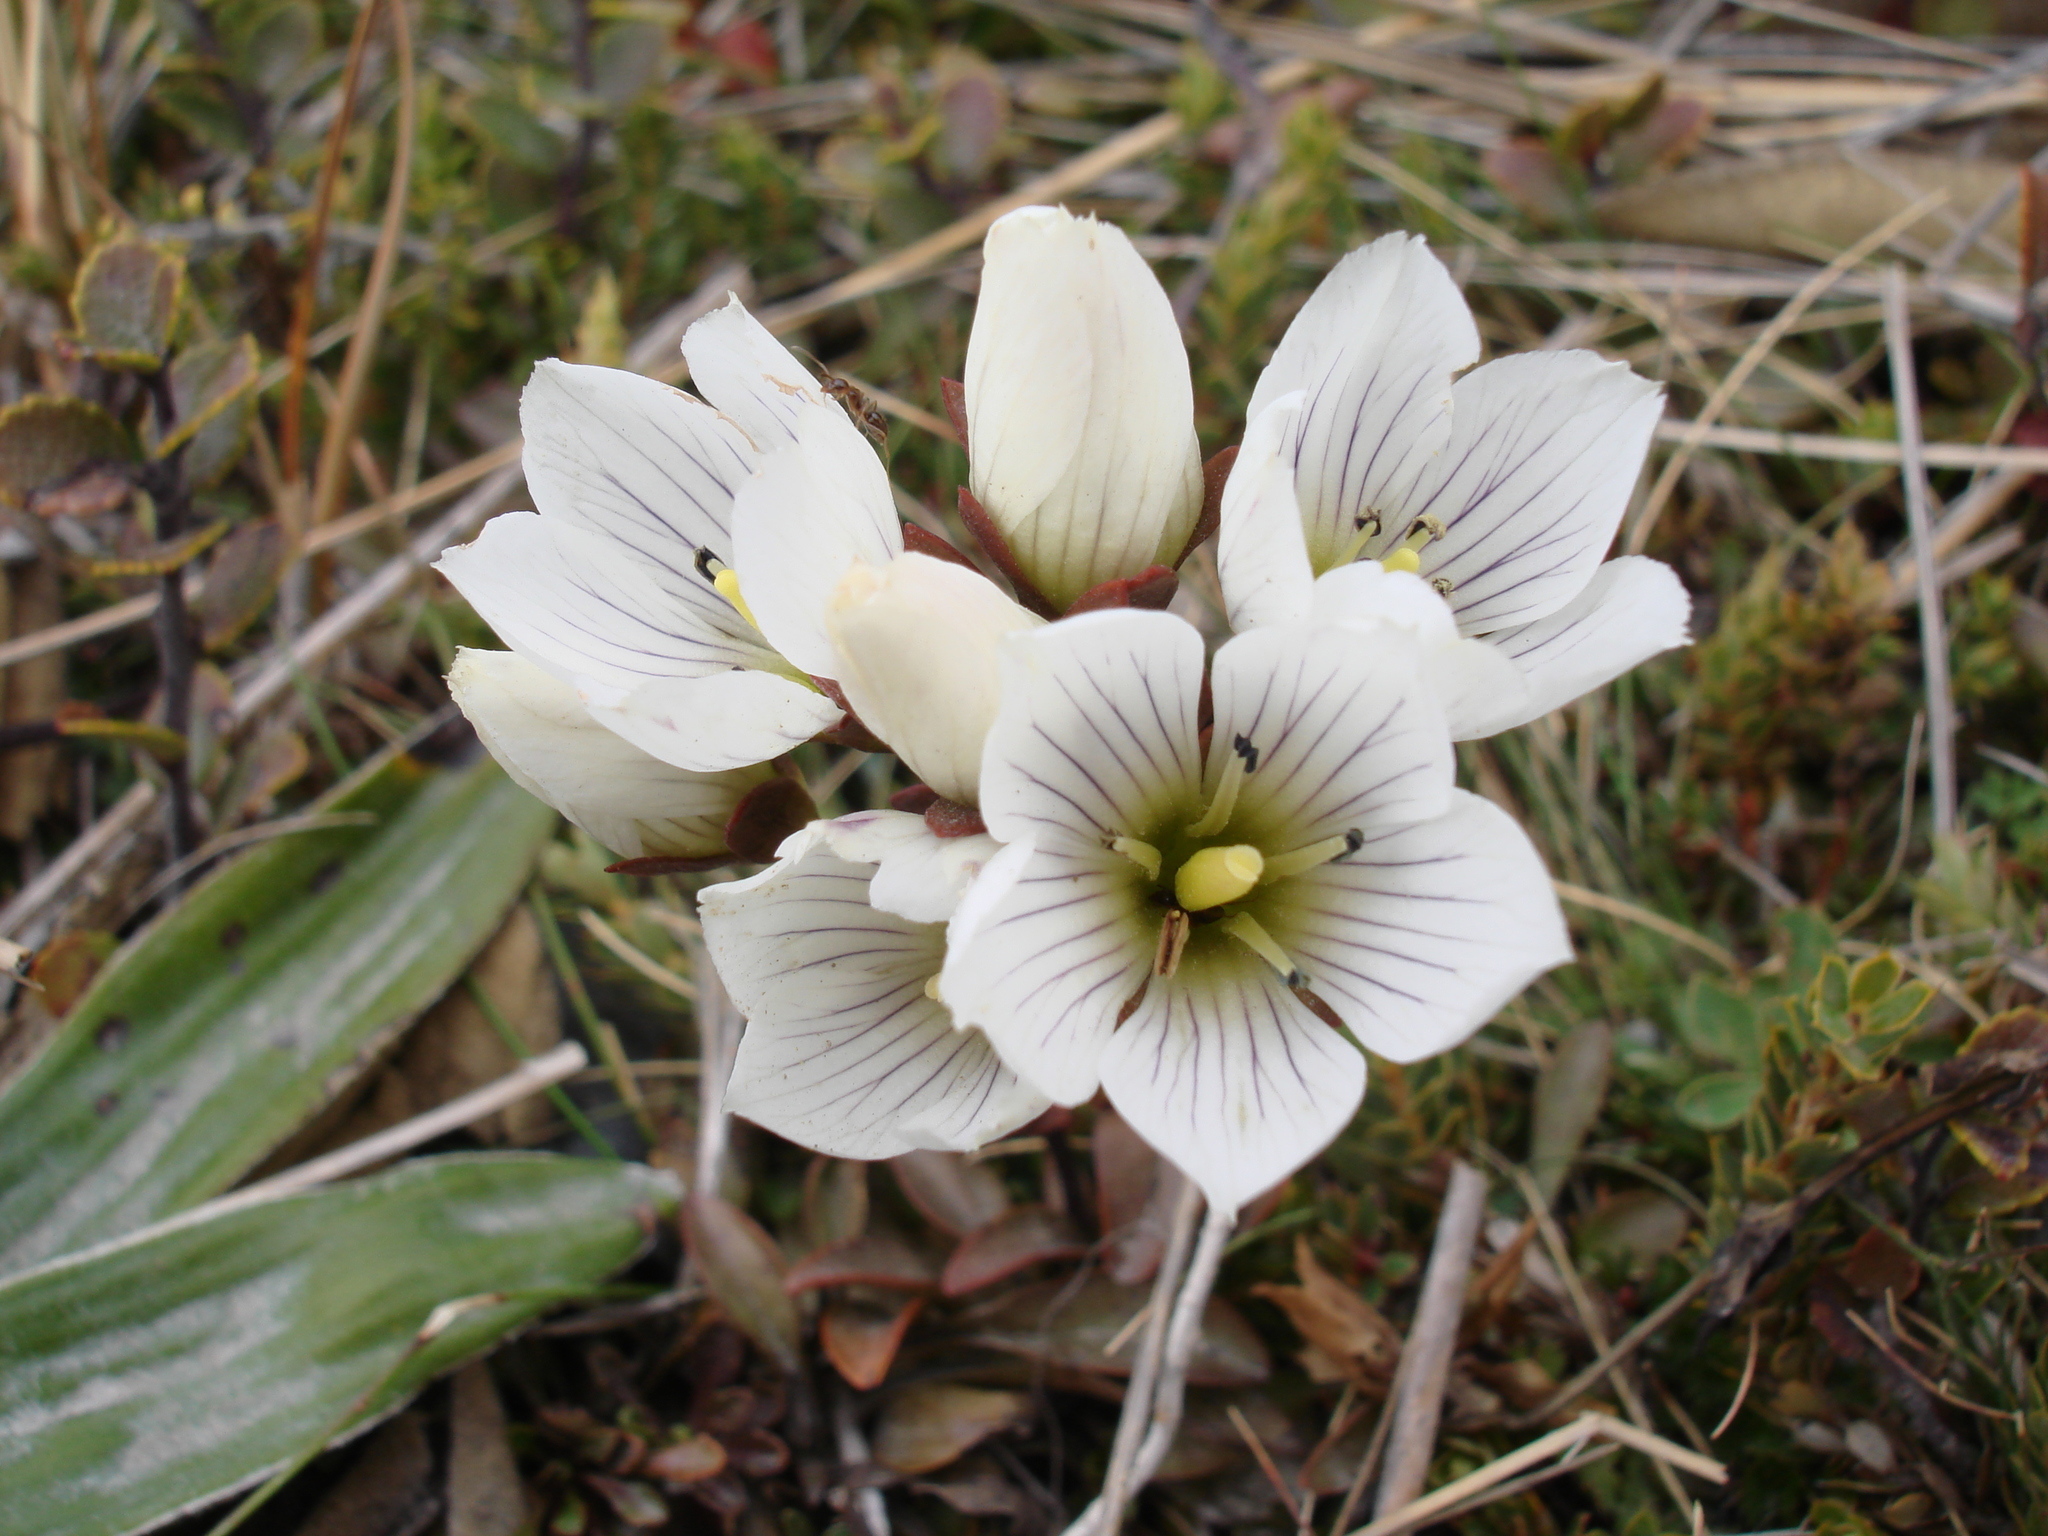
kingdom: Plantae
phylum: Tracheophyta
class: Magnoliopsida
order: Gentianales
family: Gentianaceae
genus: Gentianella
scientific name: Gentianella bellidifolia
